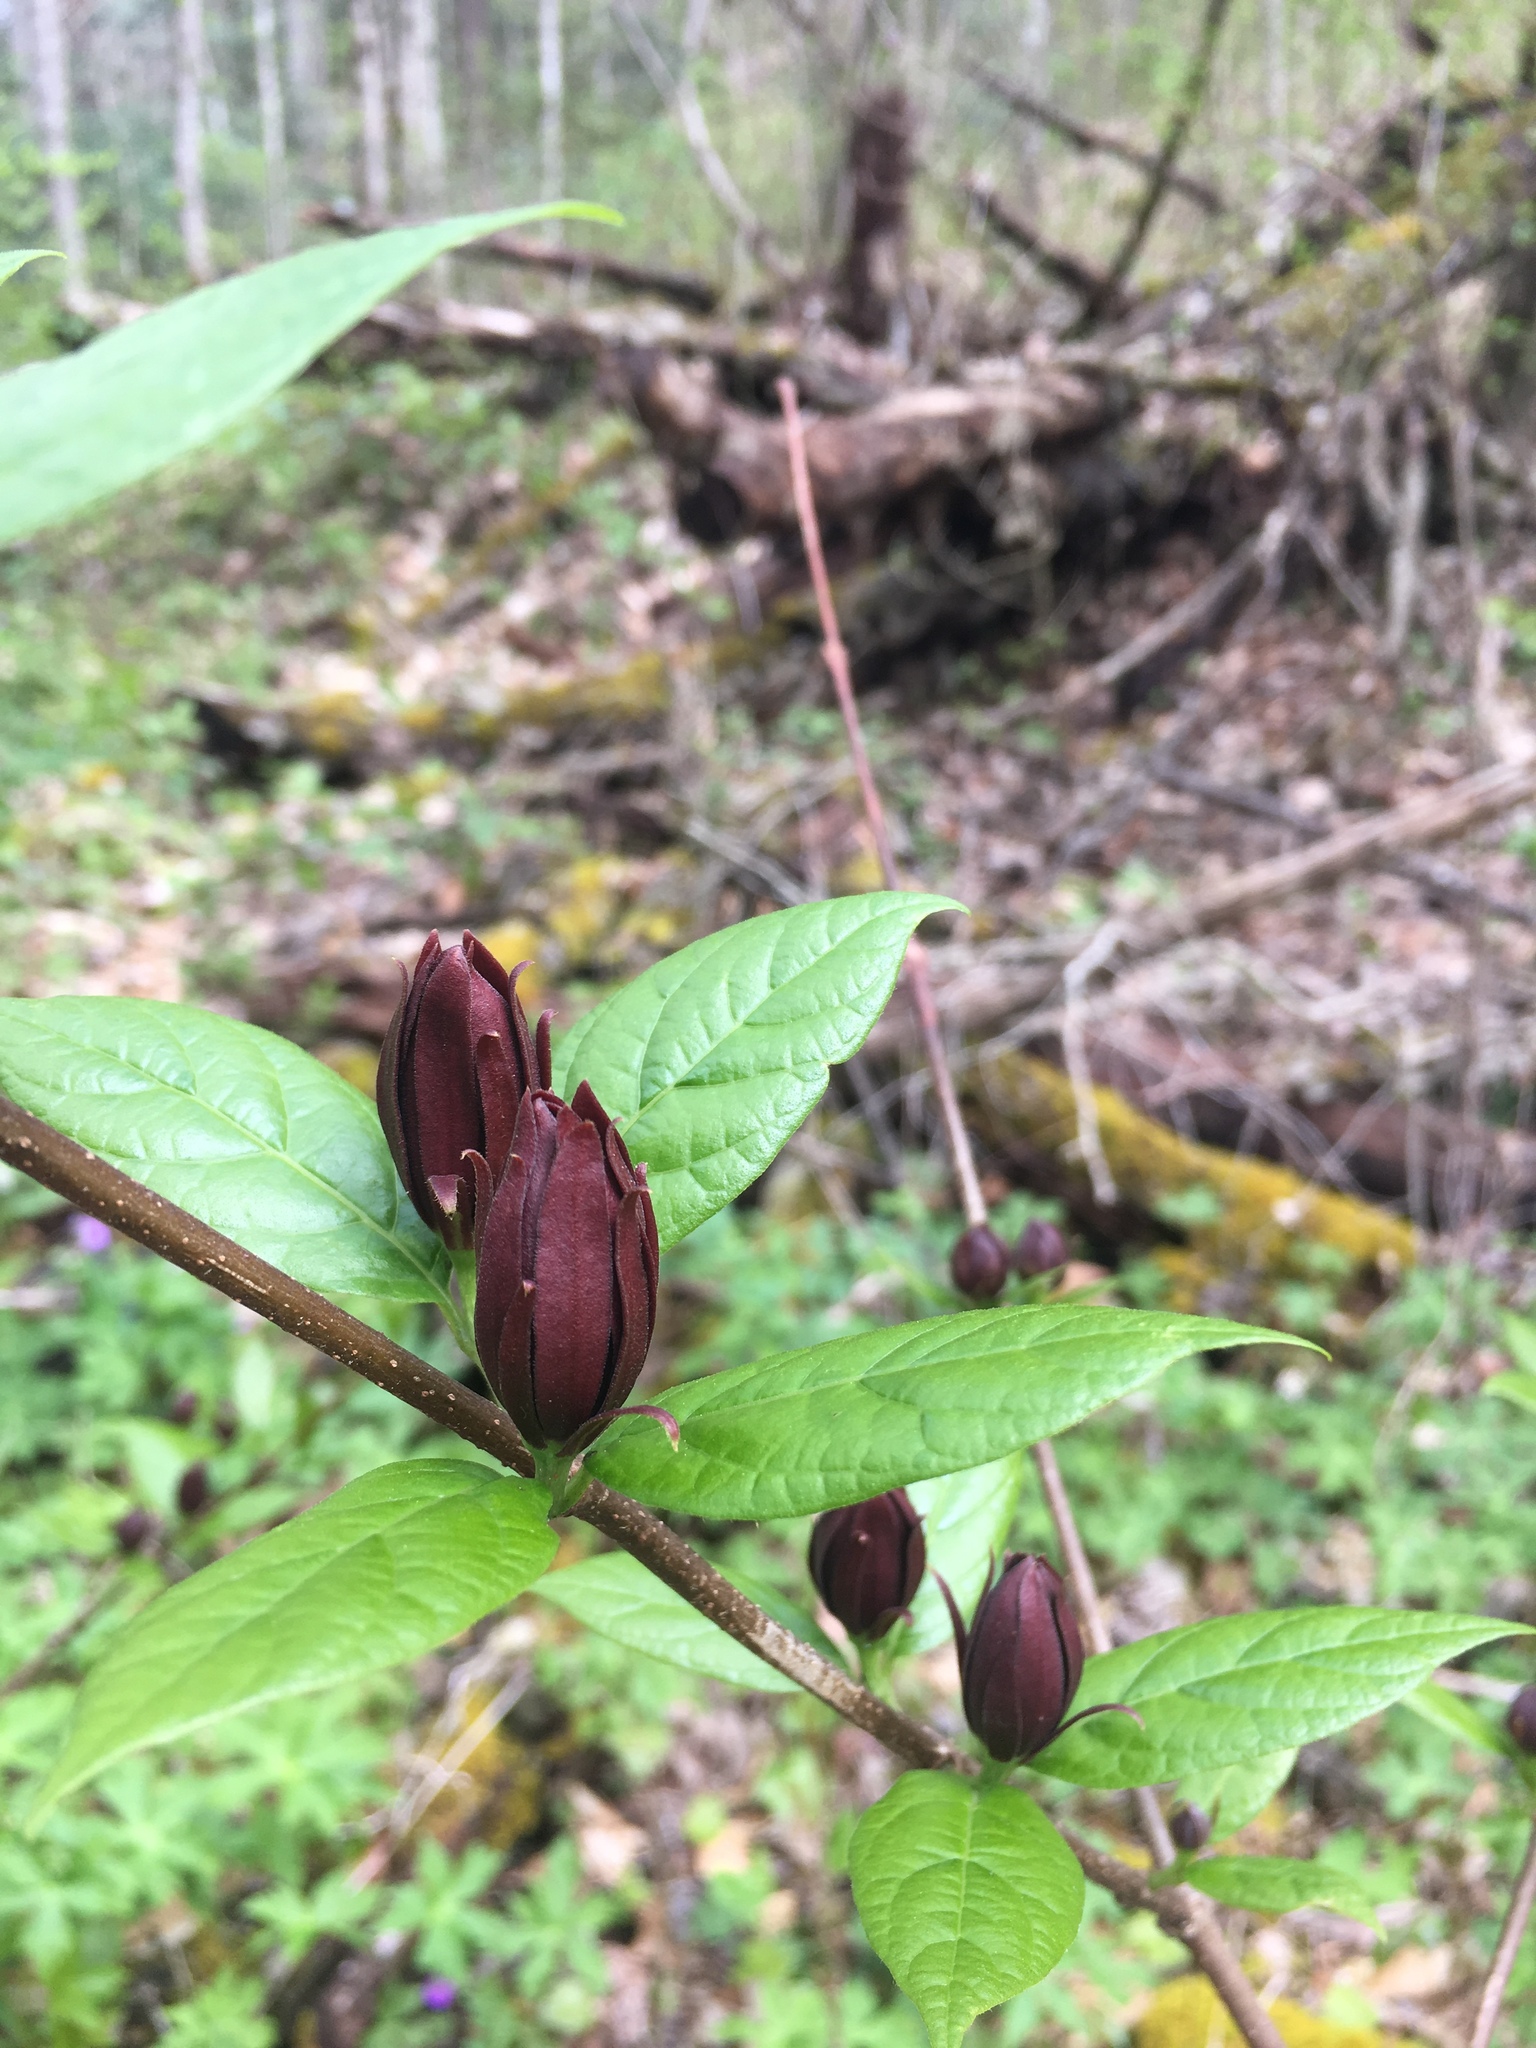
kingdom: Plantae
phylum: Tracheophyta
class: Magnoliopsida
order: Laurales
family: Calycanthaceae
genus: Calycanthus
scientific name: Calycanthus floridus
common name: Carolina-allspice
